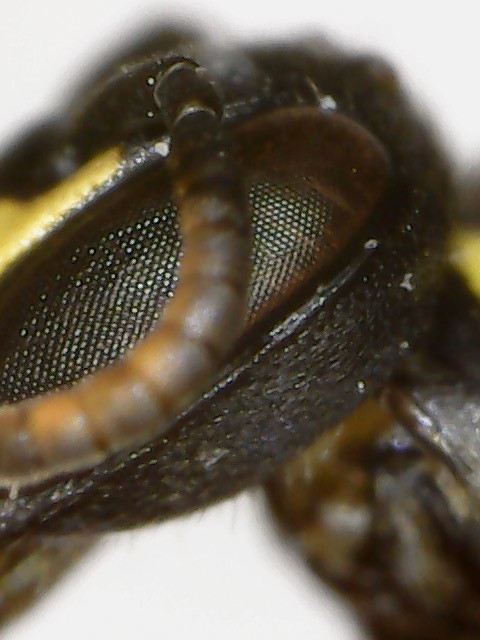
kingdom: Animalia
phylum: Arthropoda
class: Insecta
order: Hymenoptera
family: Colletidae
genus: Hylaeus
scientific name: Hylaeus modestus
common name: Yellow-faced bee
